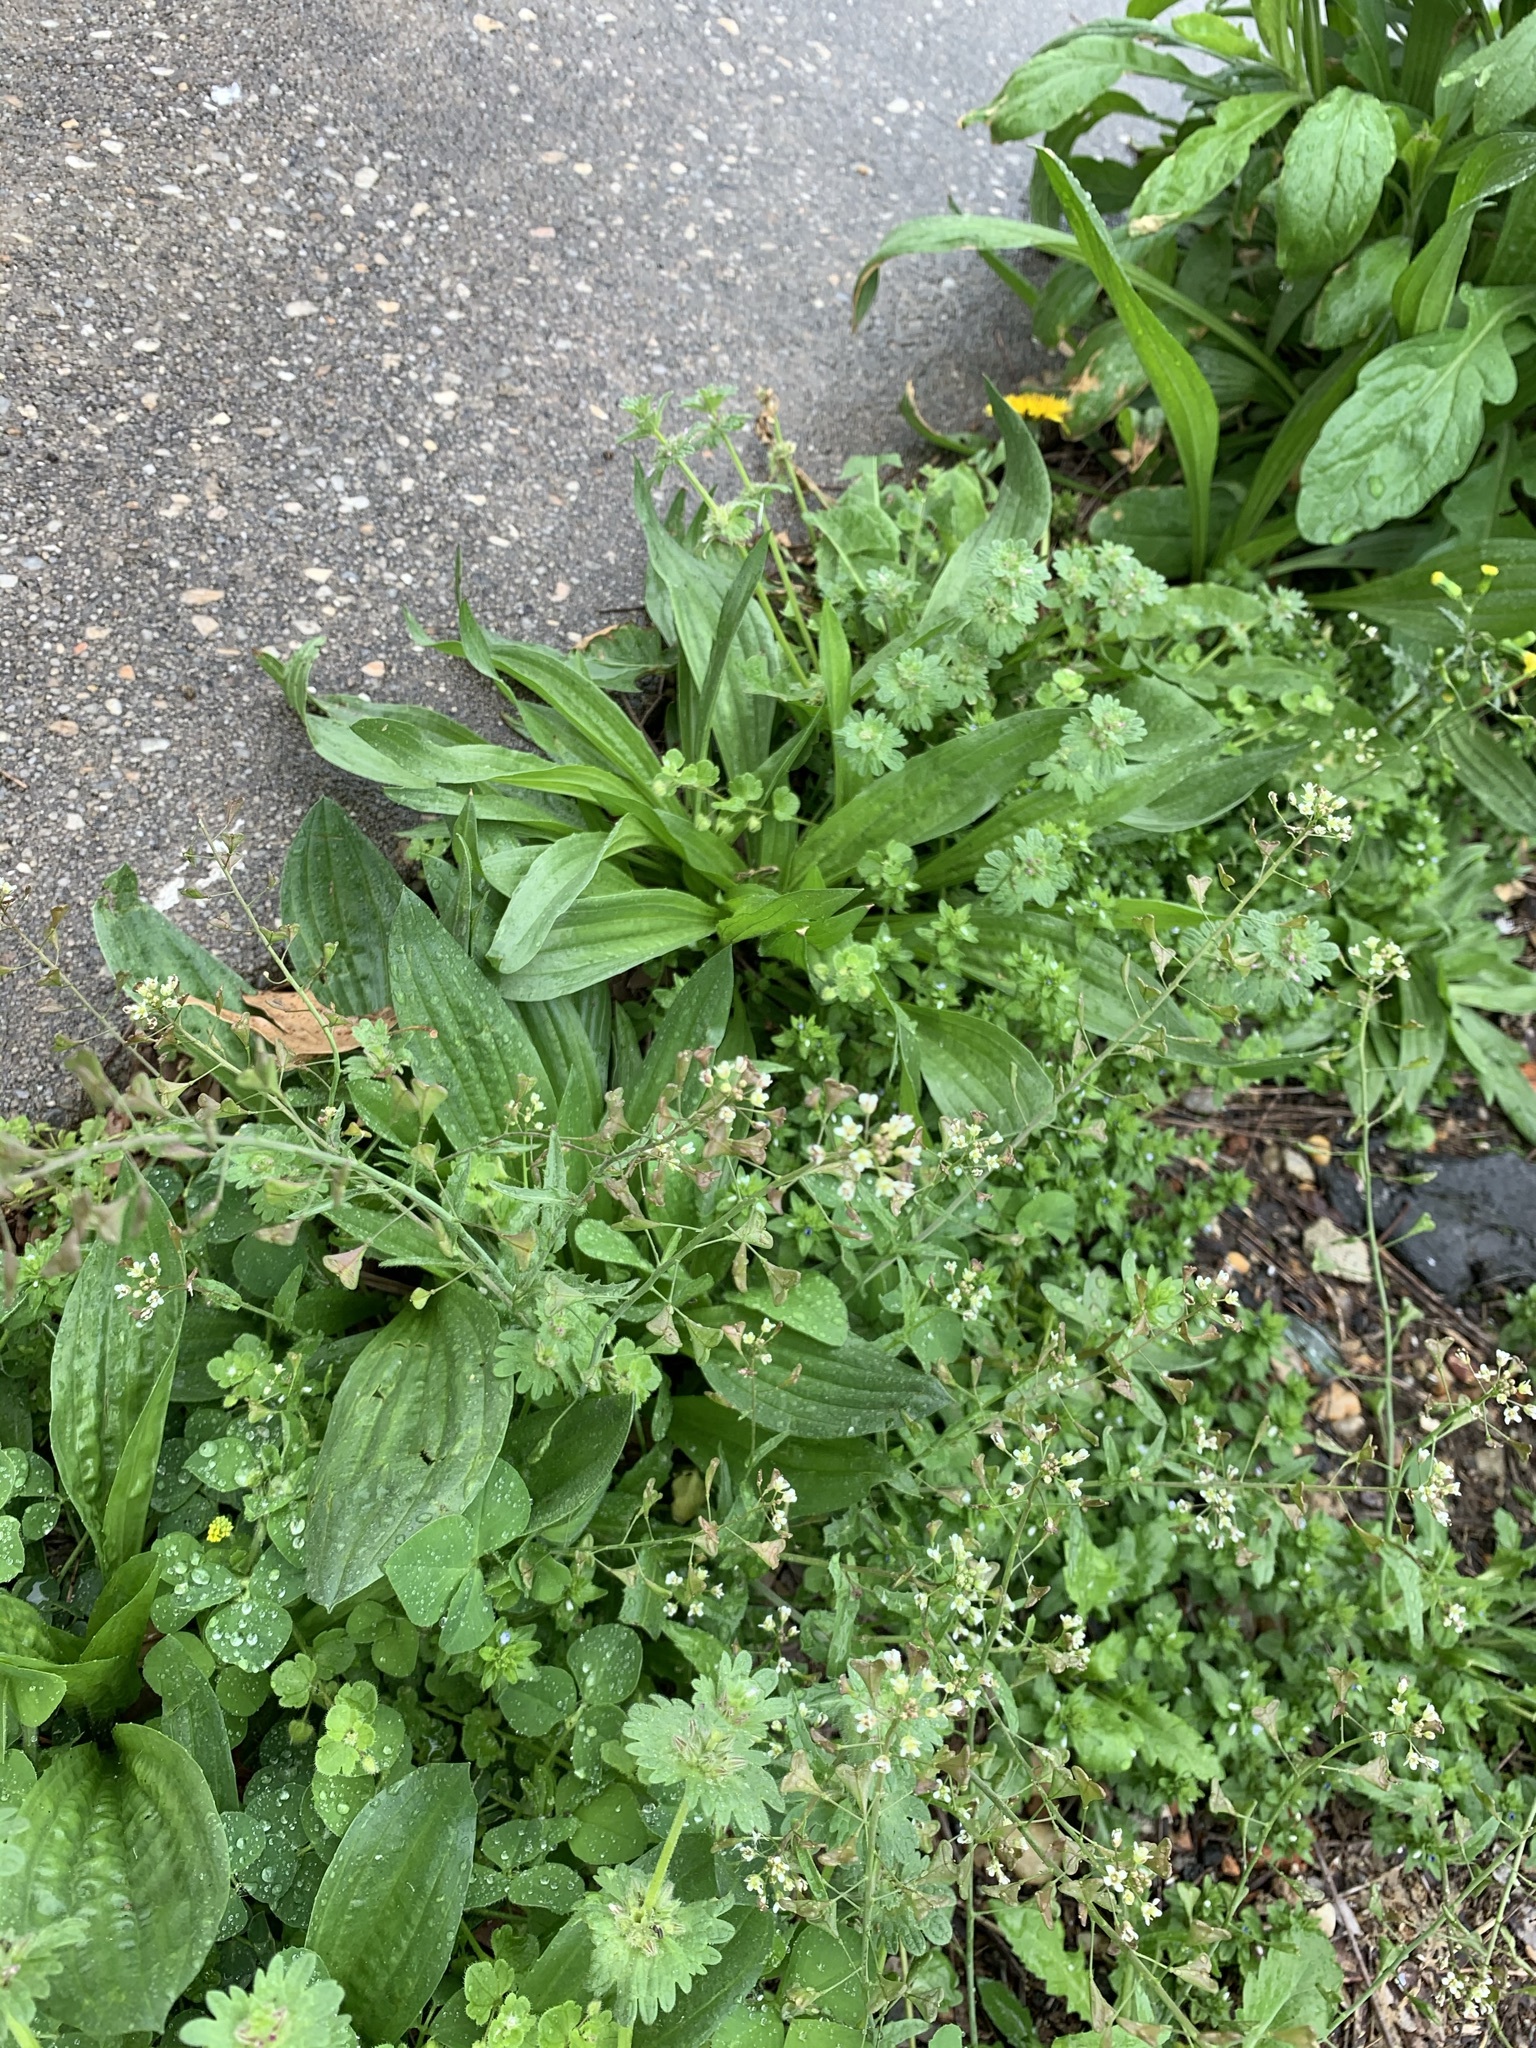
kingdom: Plantae
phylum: Tracheophyta
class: Magnoliopsida
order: Brassicales
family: Brassicaceae
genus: Capsella
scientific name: Capsella bursa-pastoris
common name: Shepherd's purse
